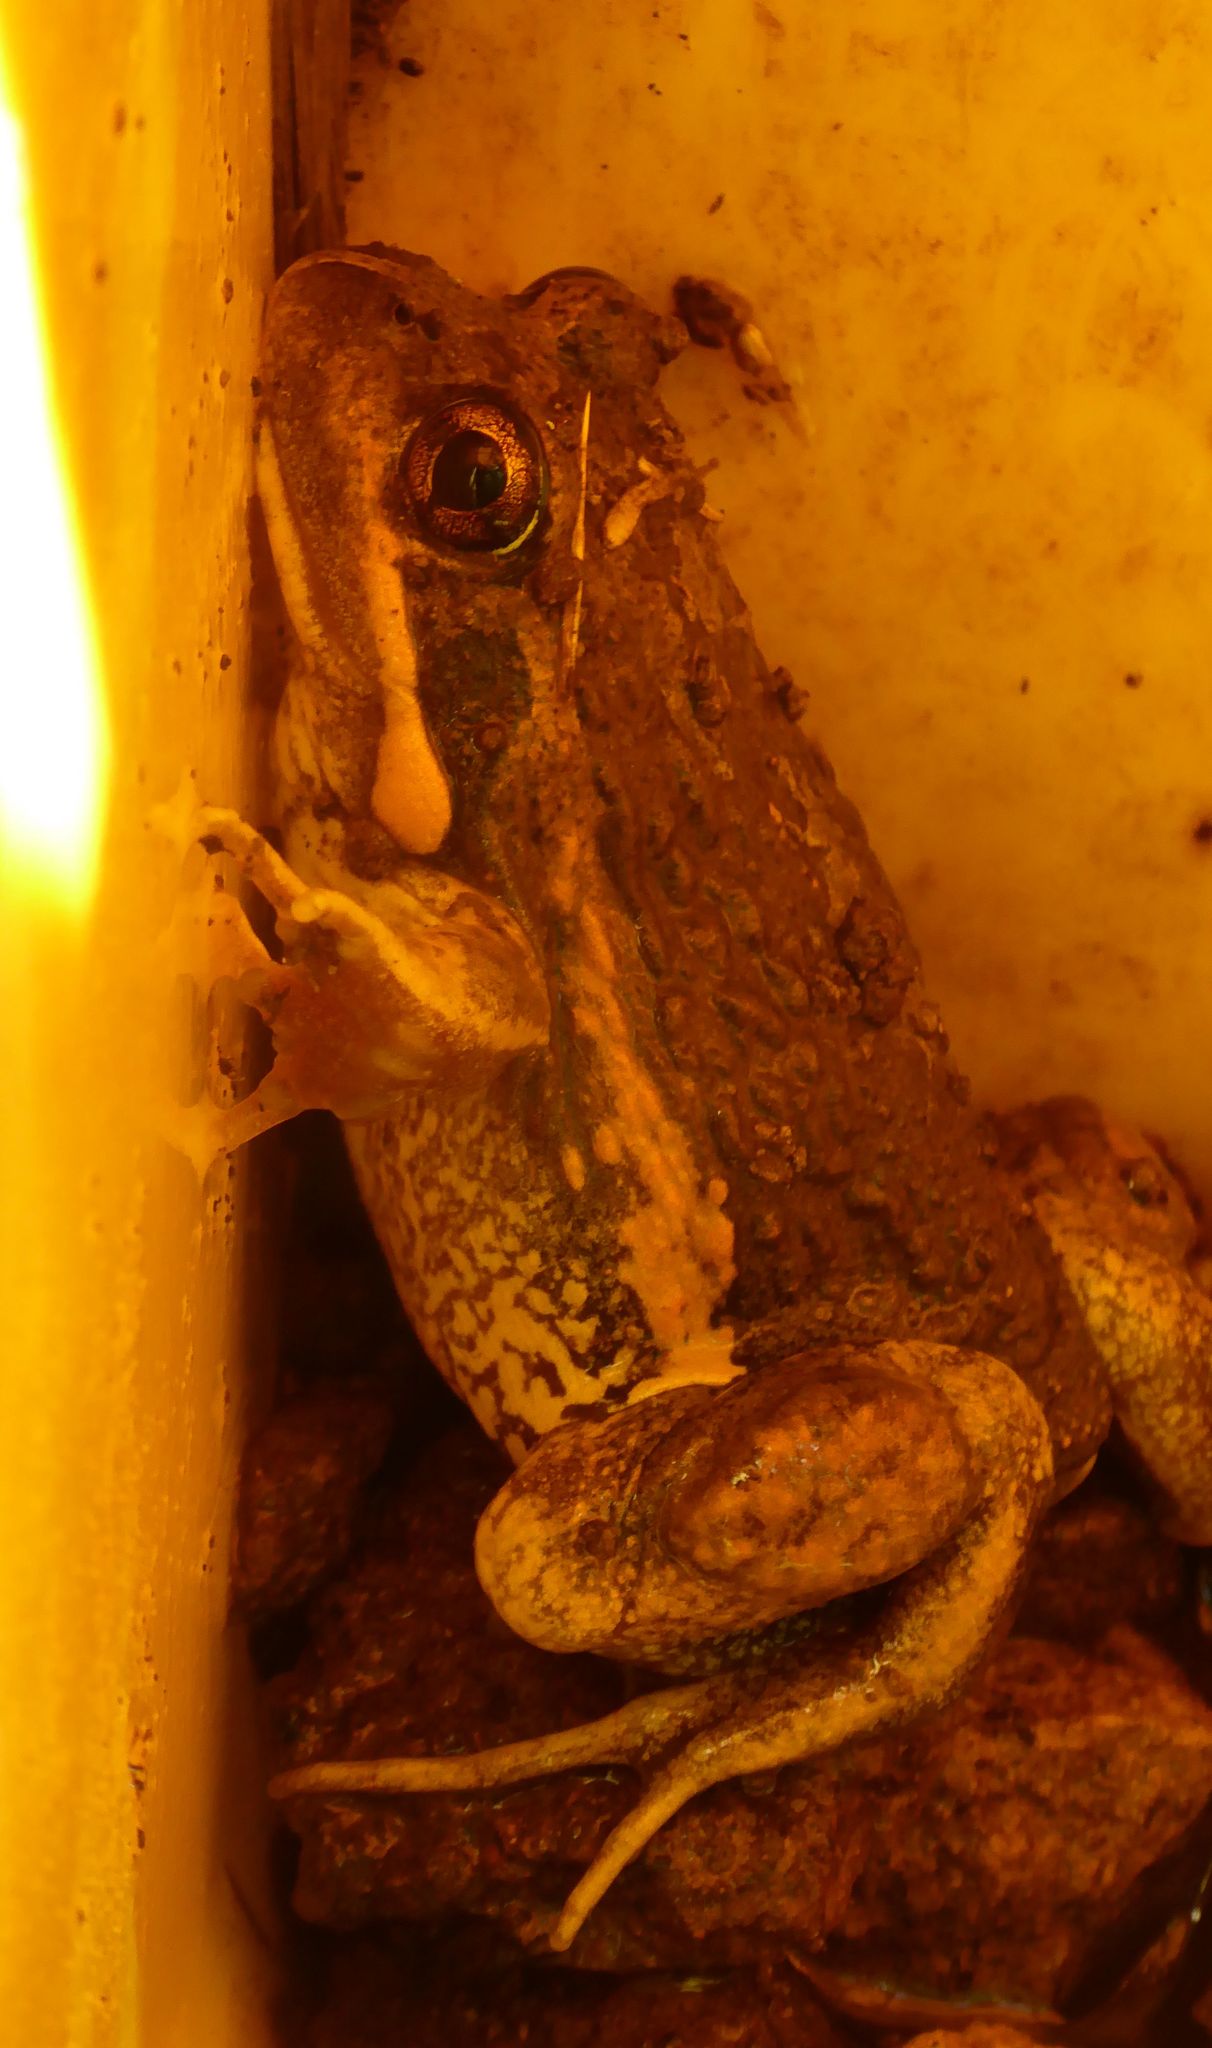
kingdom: Animalia
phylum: Chordata
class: Amphibia
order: Anura
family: Limnodynastidae
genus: Limnodynastes
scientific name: Limnodynastes dumerilii
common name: Banjo frog
